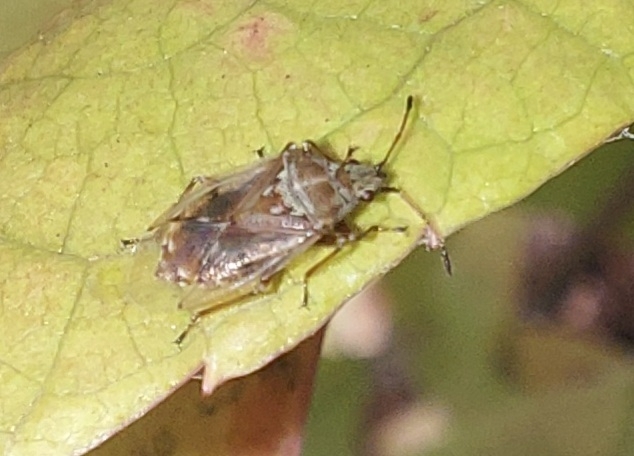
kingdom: Animalia
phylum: Arthropoda
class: Insecta
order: Hemiptera
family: Lygaeidae
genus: Kleidocerys
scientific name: Kleidocerys resedae
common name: Birch catkin bug
